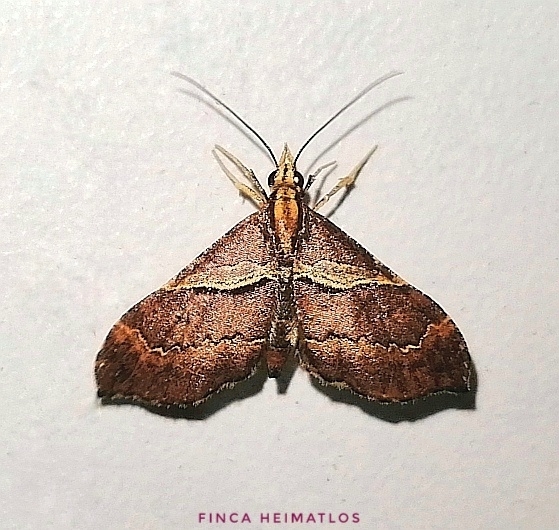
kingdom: Animalia
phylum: Arthropoda
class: Insecta
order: Lepidoptera
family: Geometridae
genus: Psaliodes
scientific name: Psaliodes catenifera
